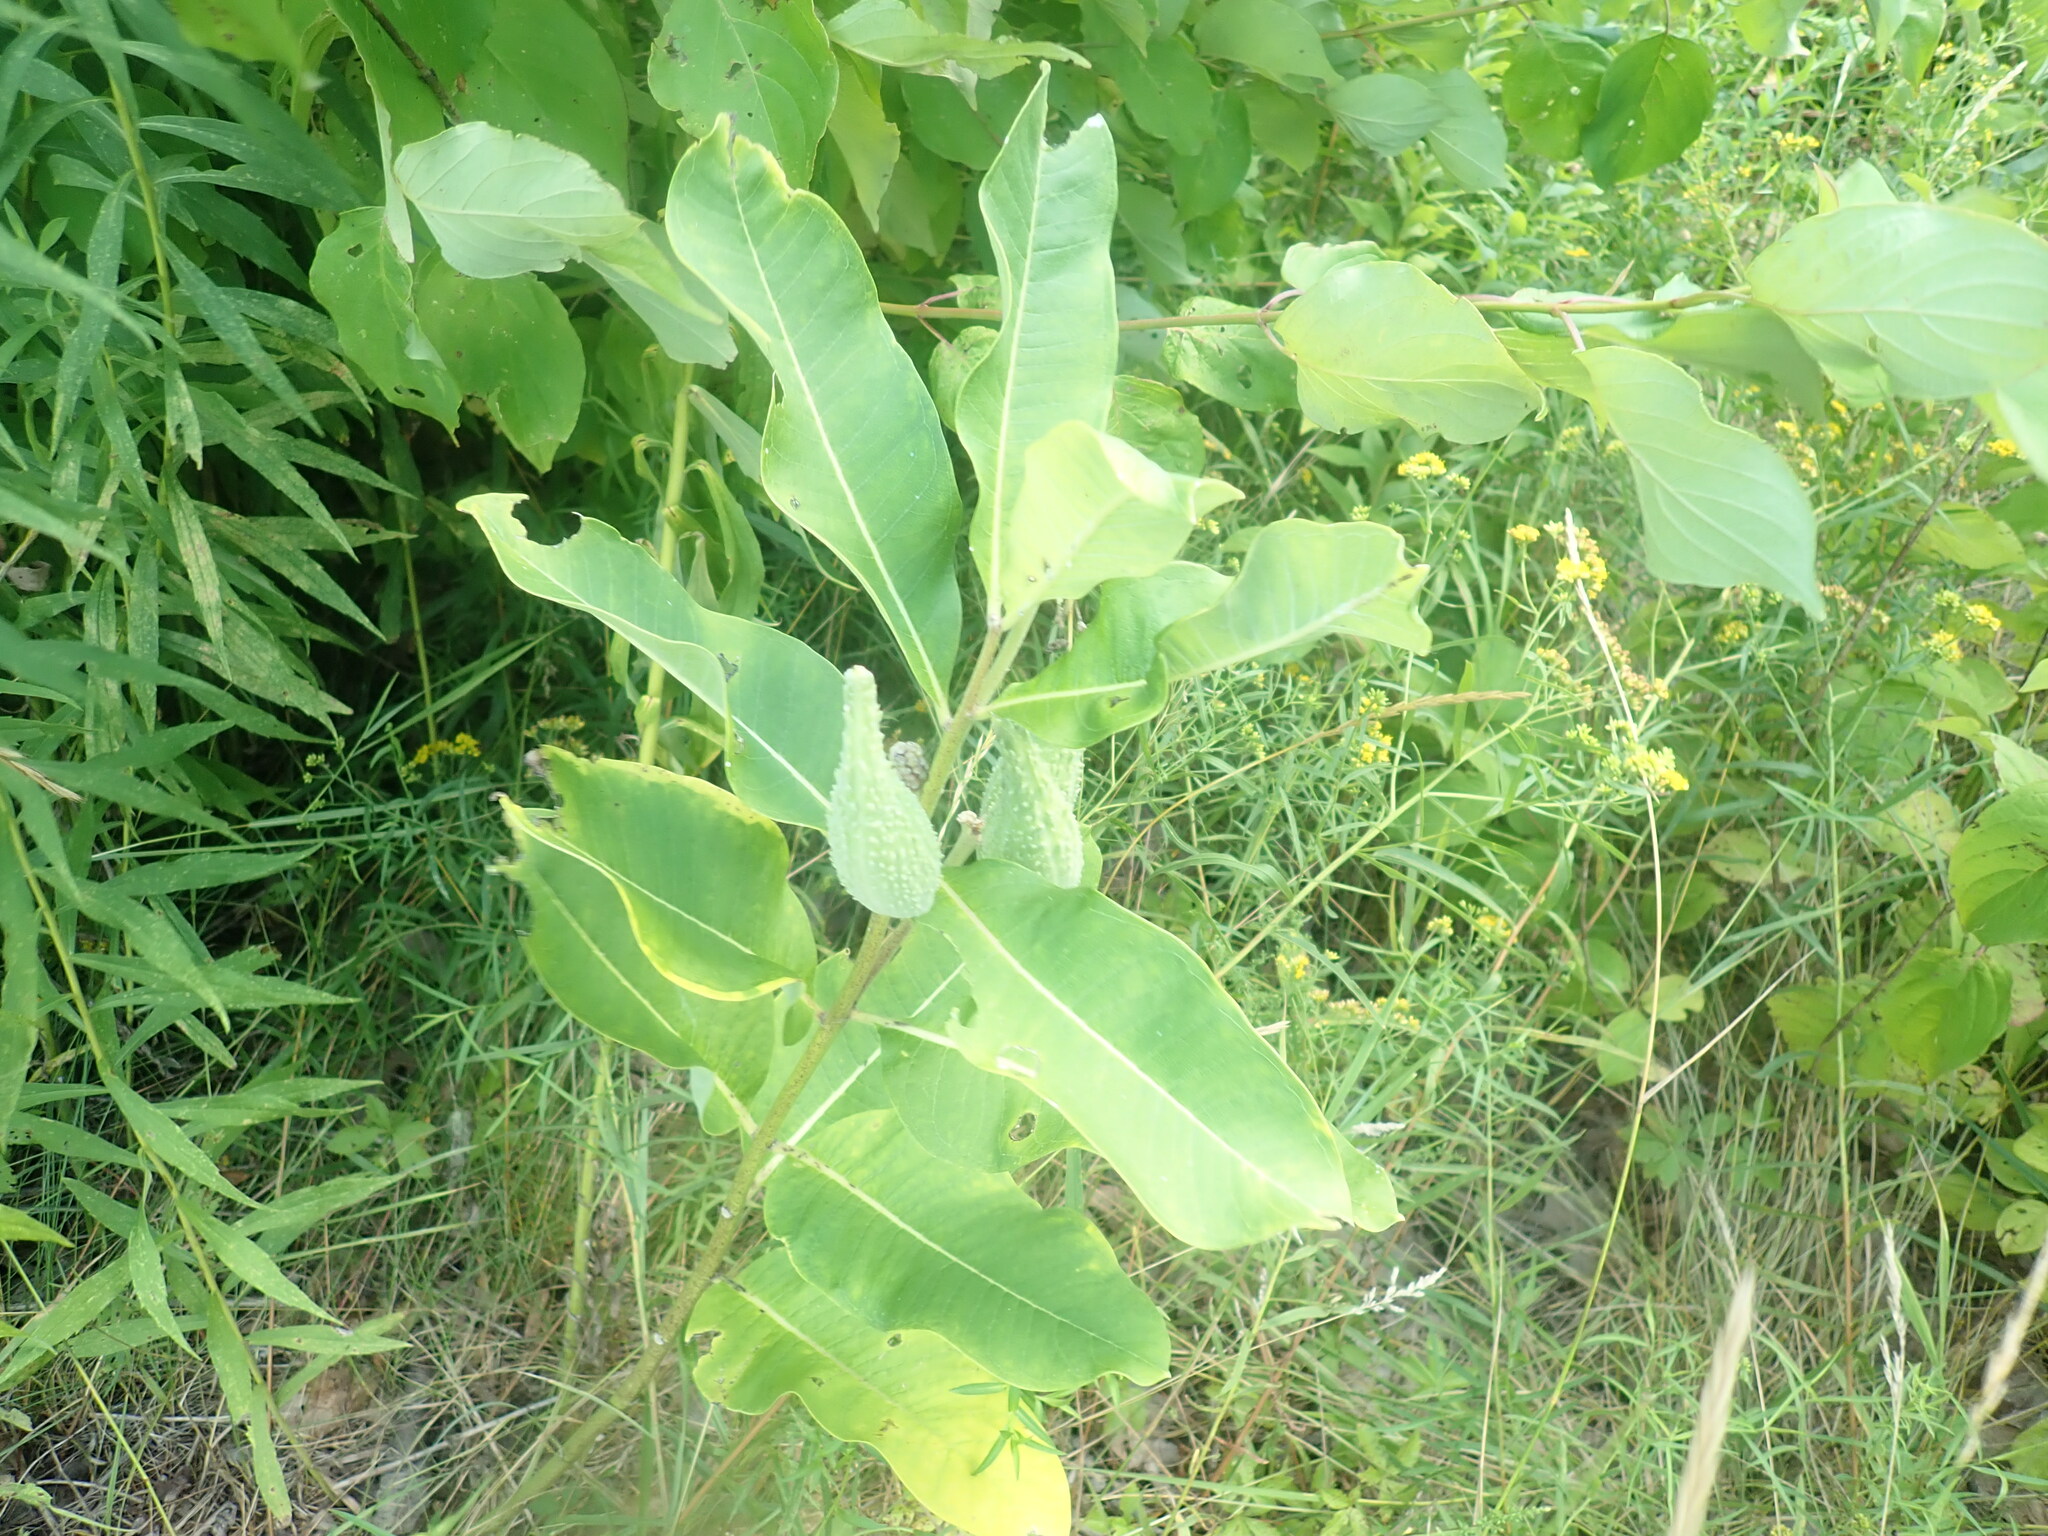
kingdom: Plantae
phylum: Tracheophyta
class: Magnoliopsida
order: Gentianales
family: Apocynaceae
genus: Asclepias
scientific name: Asclepias syriaca
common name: Common milkweed
